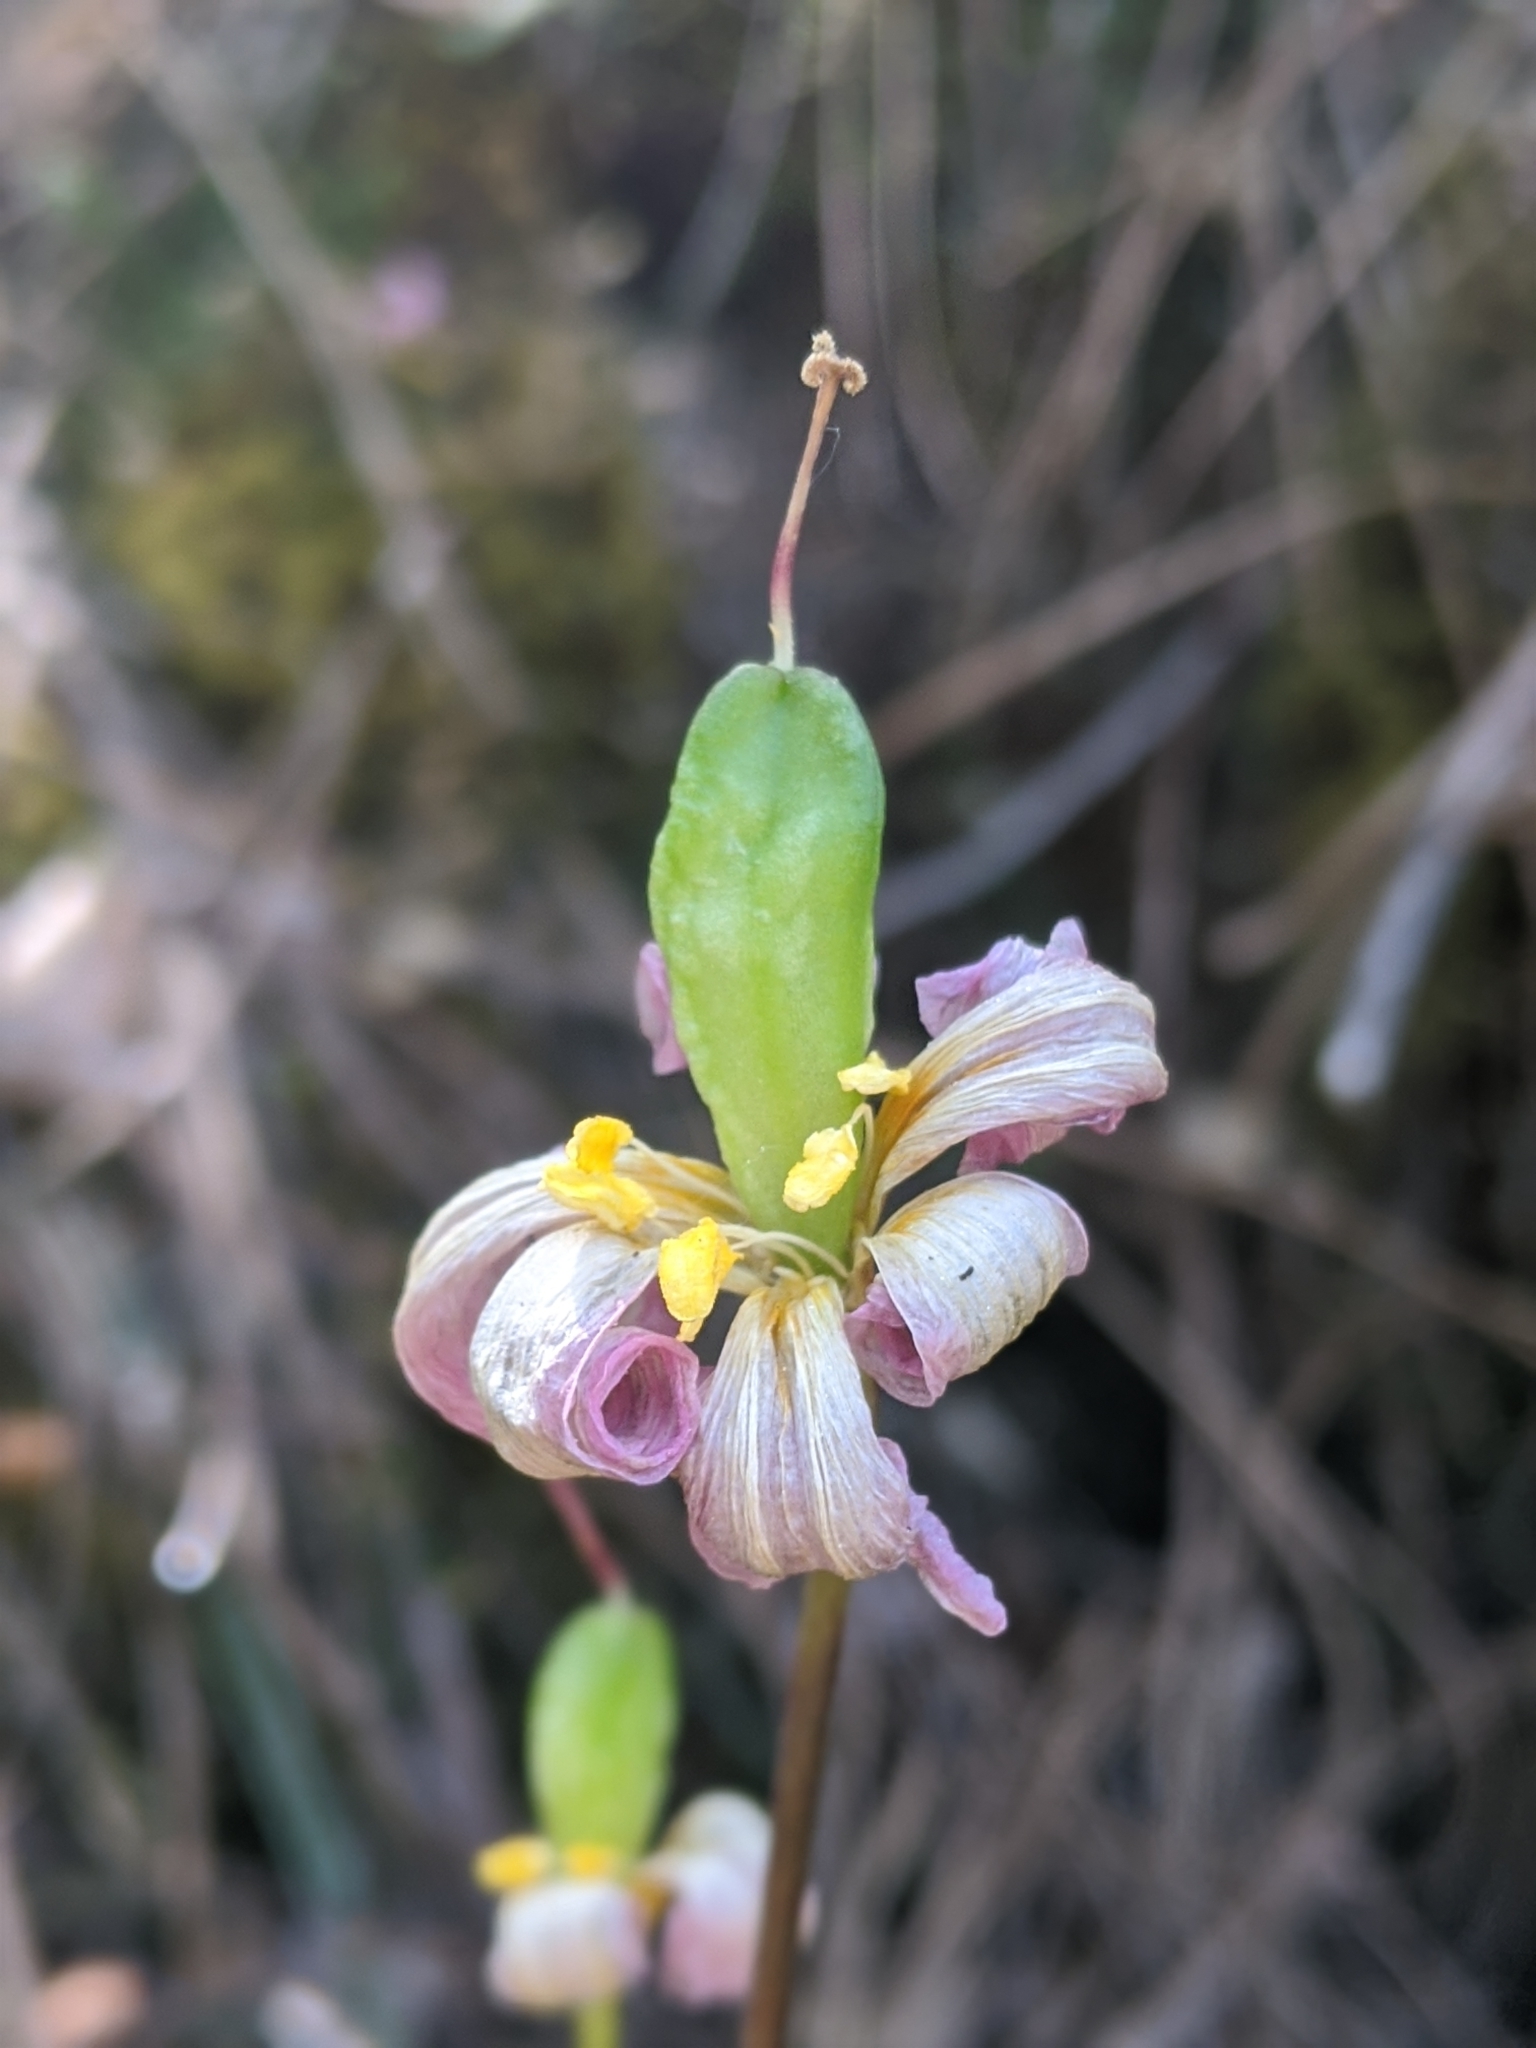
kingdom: Plantae
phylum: Tracheophyta
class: Liliopsida
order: Liliales
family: Liliaceae
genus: Erythronium
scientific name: Erythronium helenae
